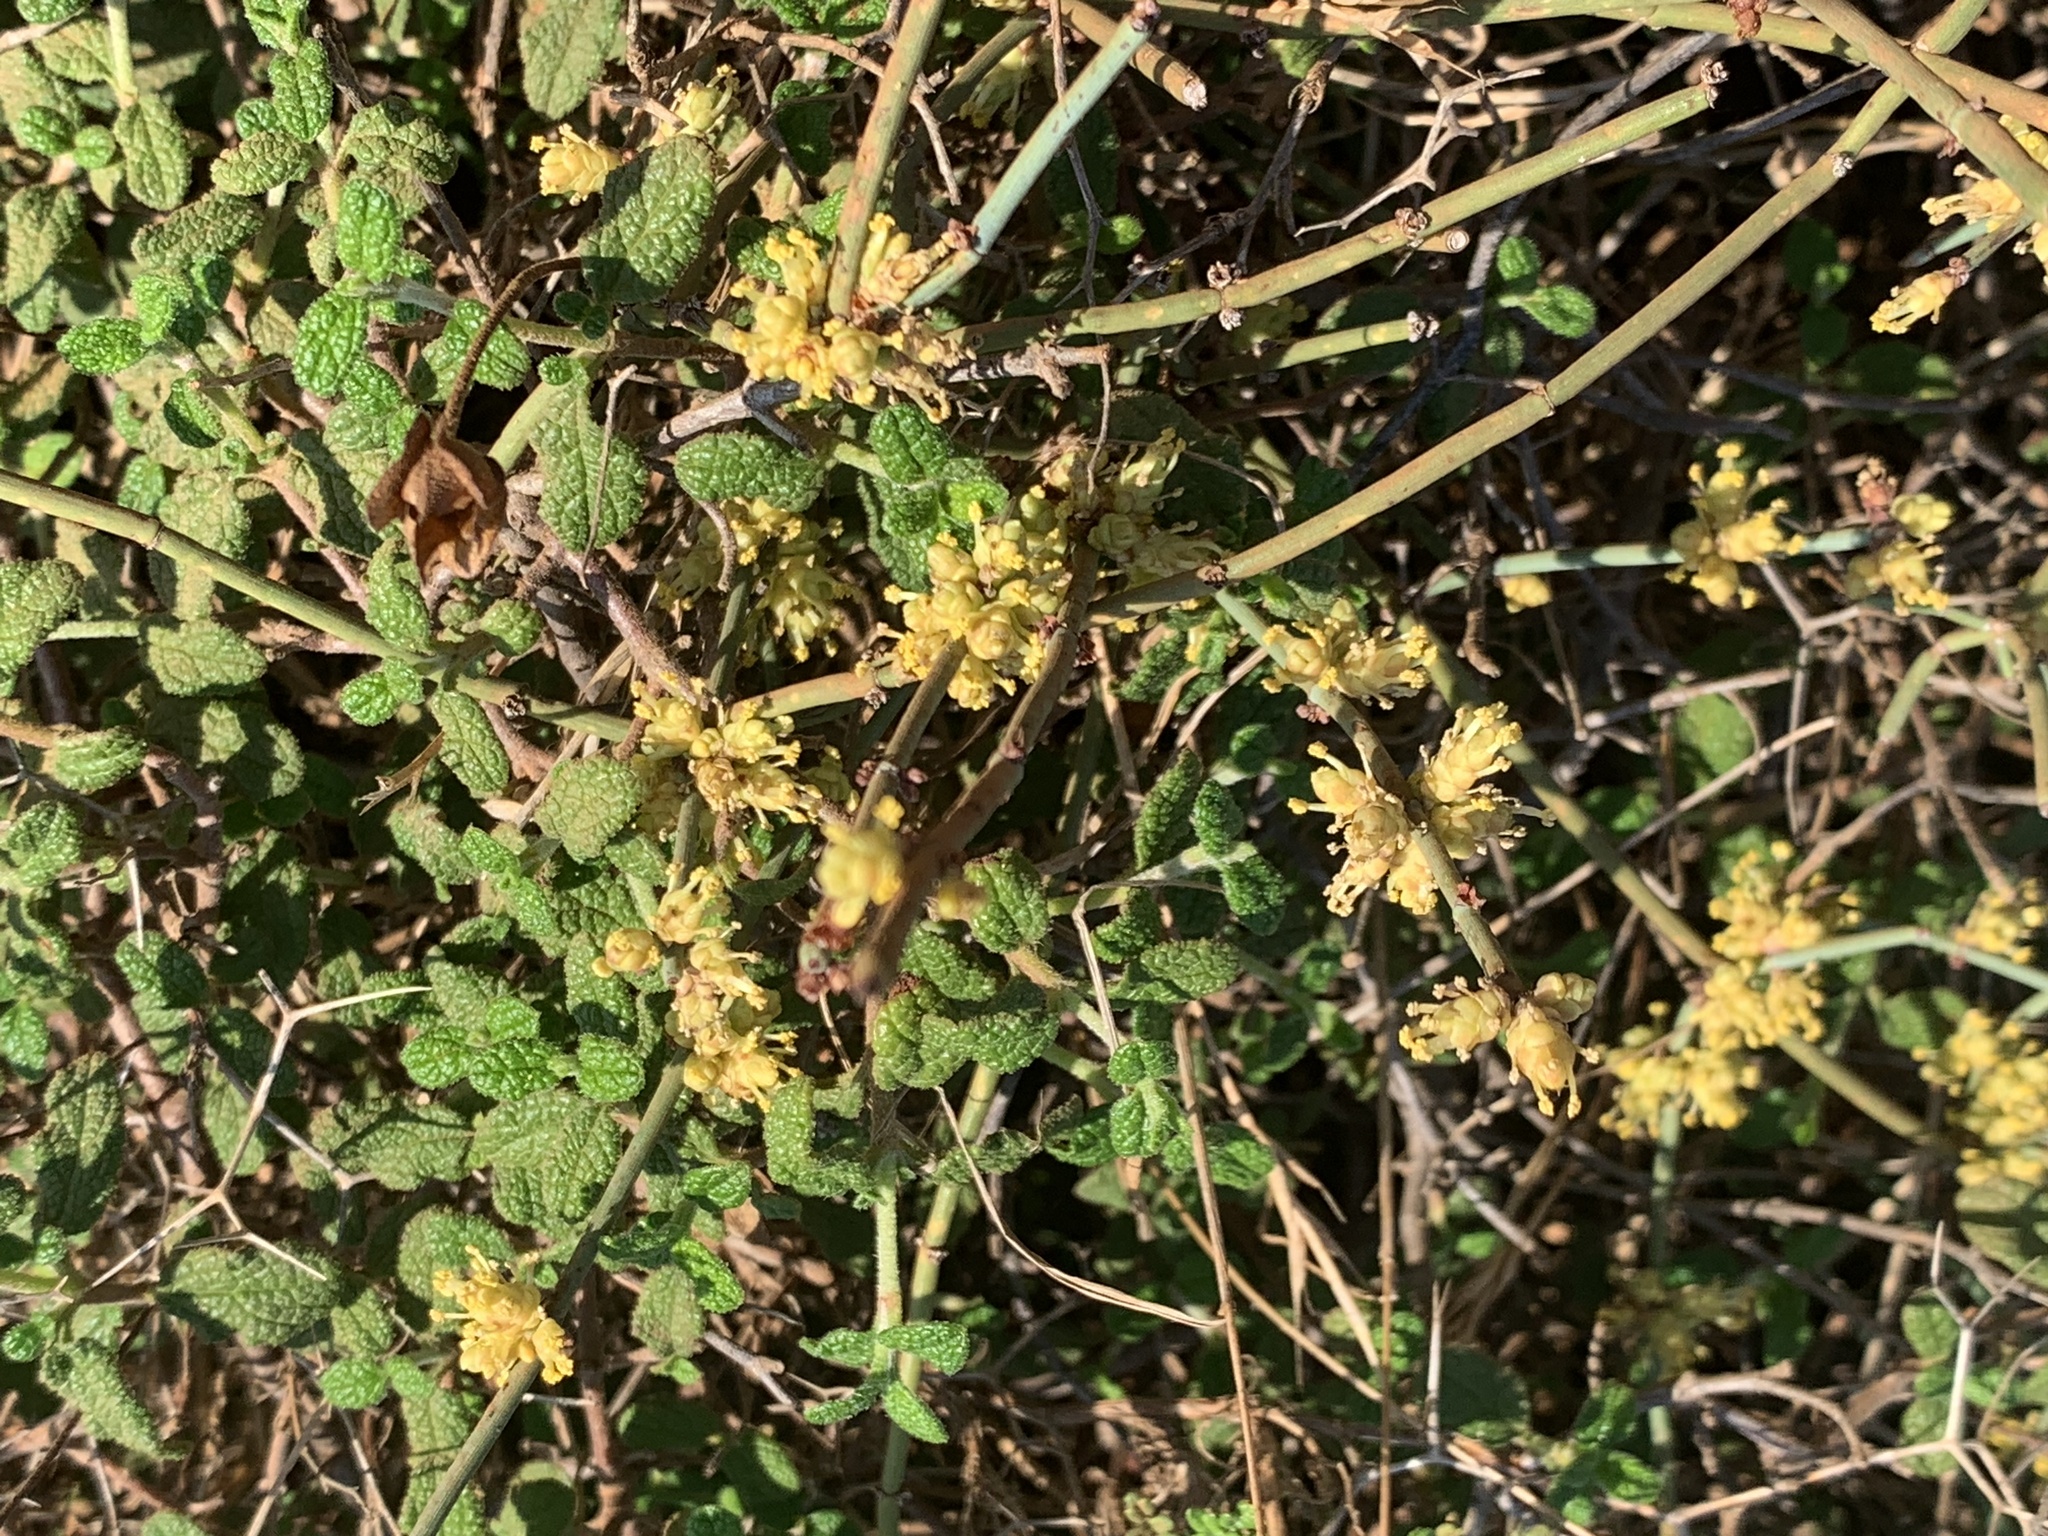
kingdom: Plantae
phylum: Tracheophyta
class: Gnetopsida
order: Ephedrales
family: Ephedraceae
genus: Ephedra
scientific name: Ephedra foeminea
